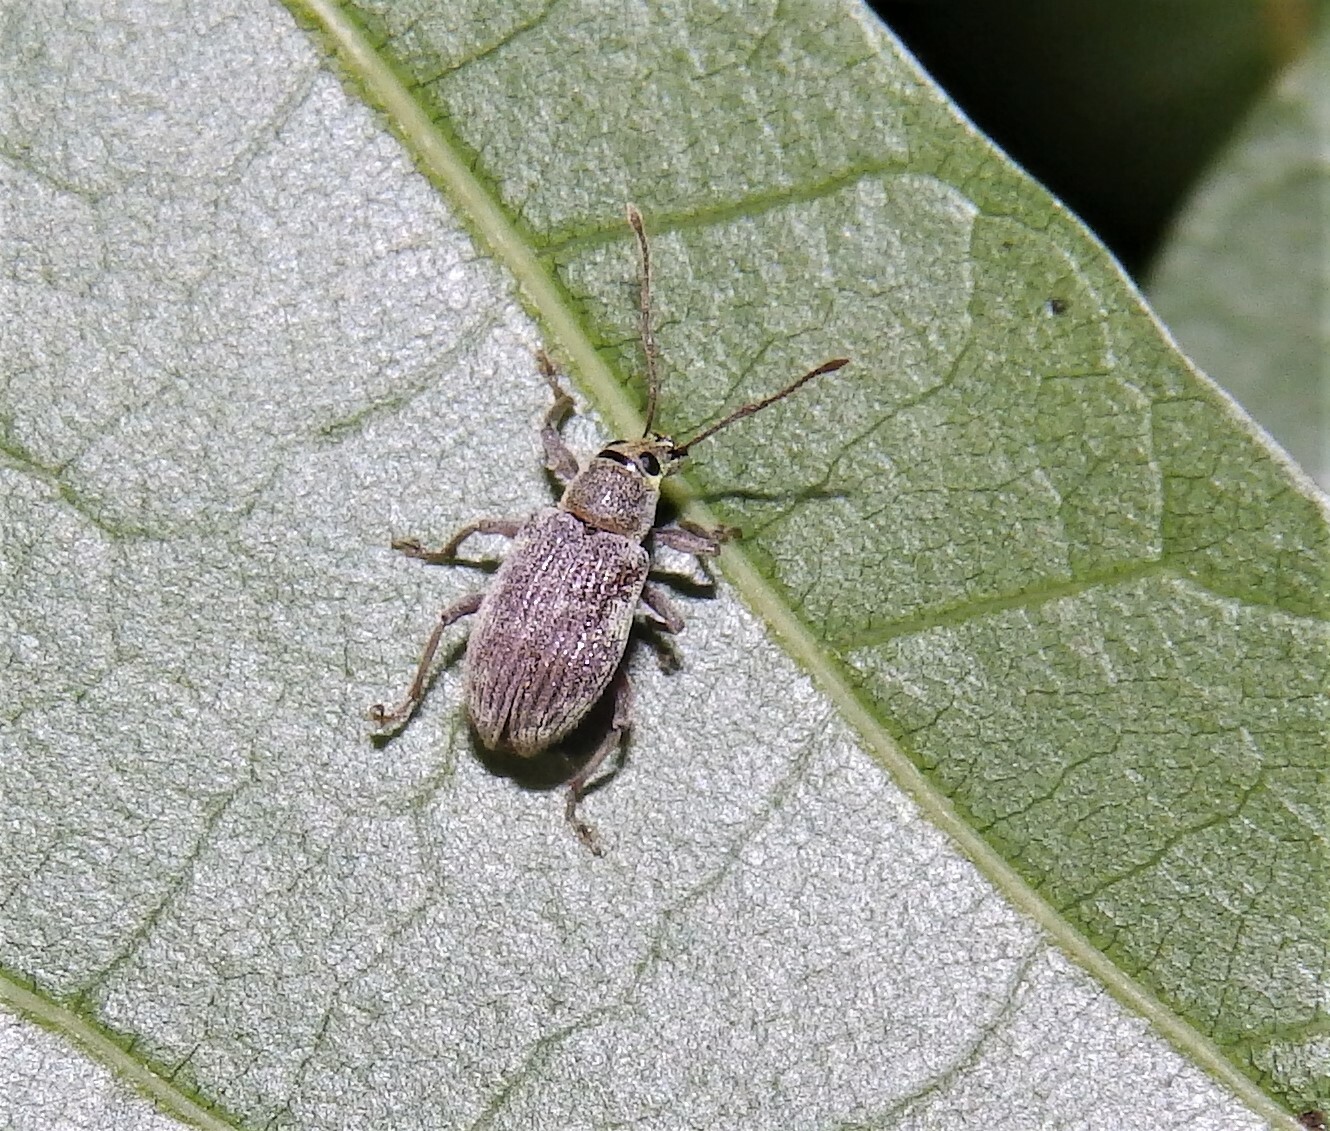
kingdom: Animalia
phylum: Arthropoda
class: Insecta
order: Coleoptera
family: Curculionidae
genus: Cyrtepistomus
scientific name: Cyrtepistomus castaneus
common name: Weevil
